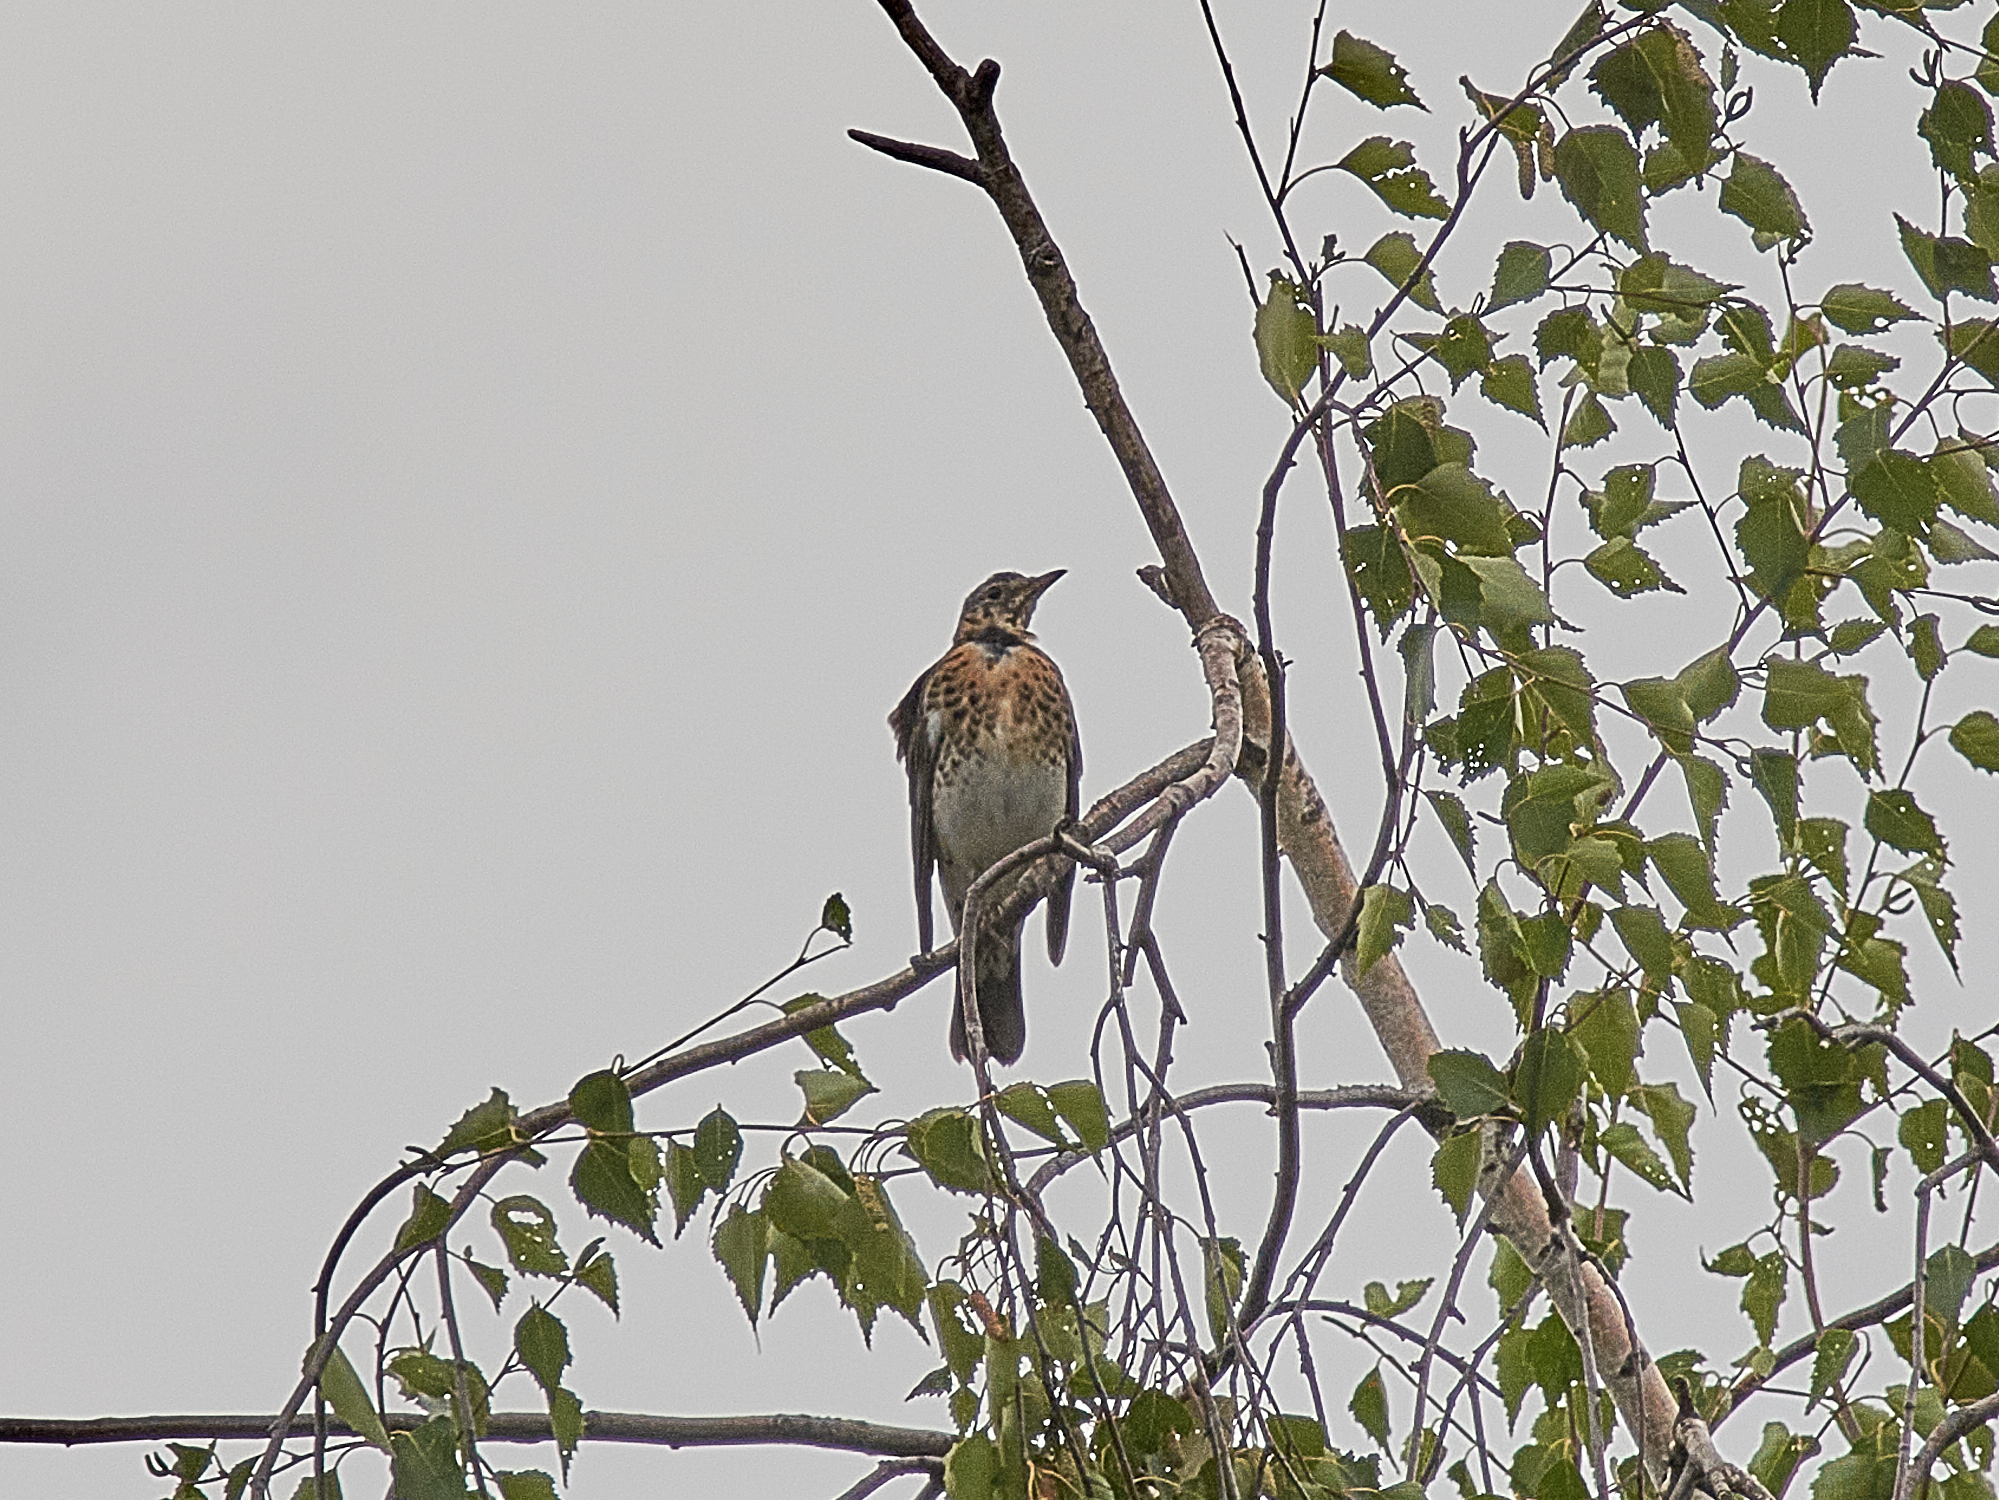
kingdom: Animalia
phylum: Chordata
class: Aves
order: Passeriformes
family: Turdidae
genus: Turdus
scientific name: Turdus pilaris
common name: Fieldfare
